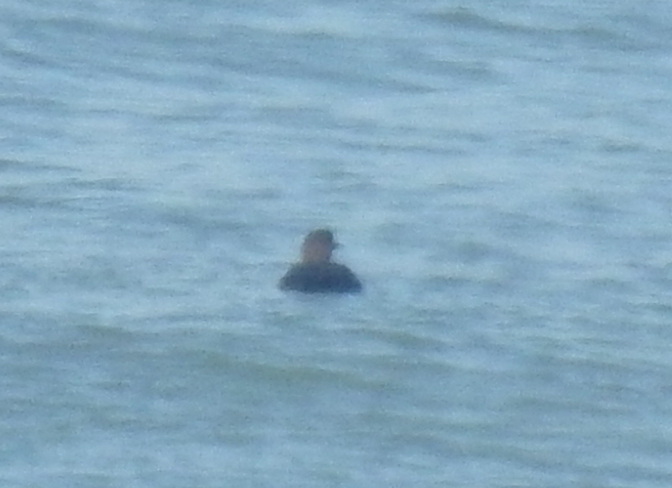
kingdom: Animalia
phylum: Chordata
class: Aves
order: Gaviiformes
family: Gaviidae
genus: Gavia
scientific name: Gavia immer
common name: Common loon
